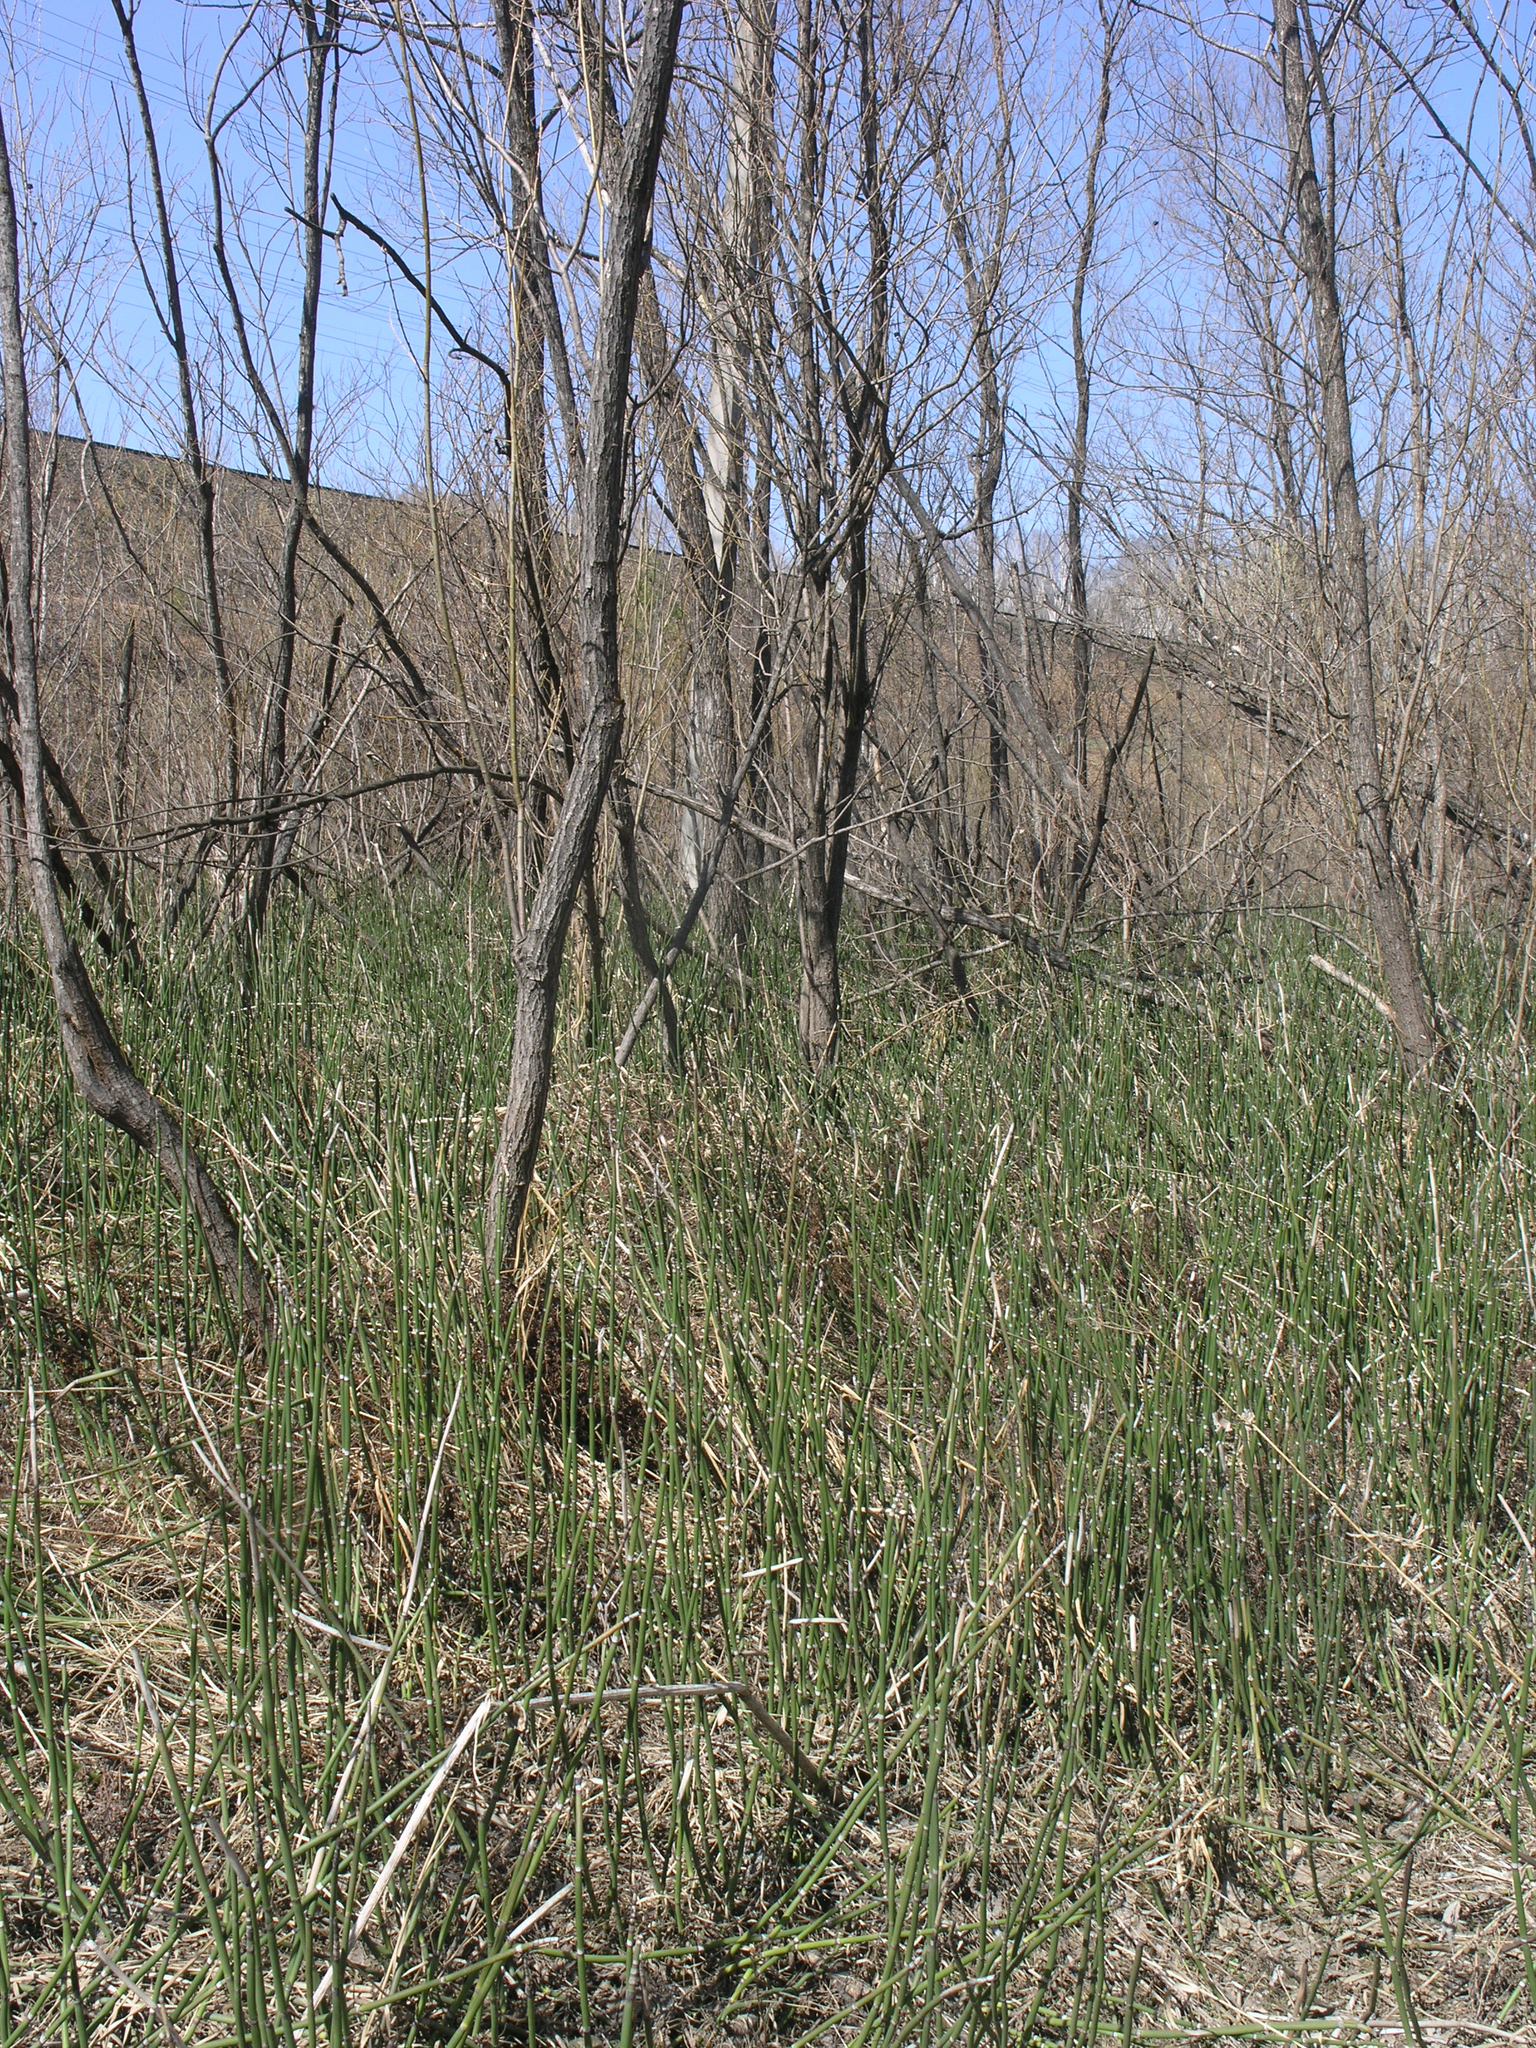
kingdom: Plantae
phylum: Tracheophyta
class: Polypodiopsida
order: Equisetales
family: Equisetaceae
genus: Equisetum
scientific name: Equisetum hyemale
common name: Rough horsetail
